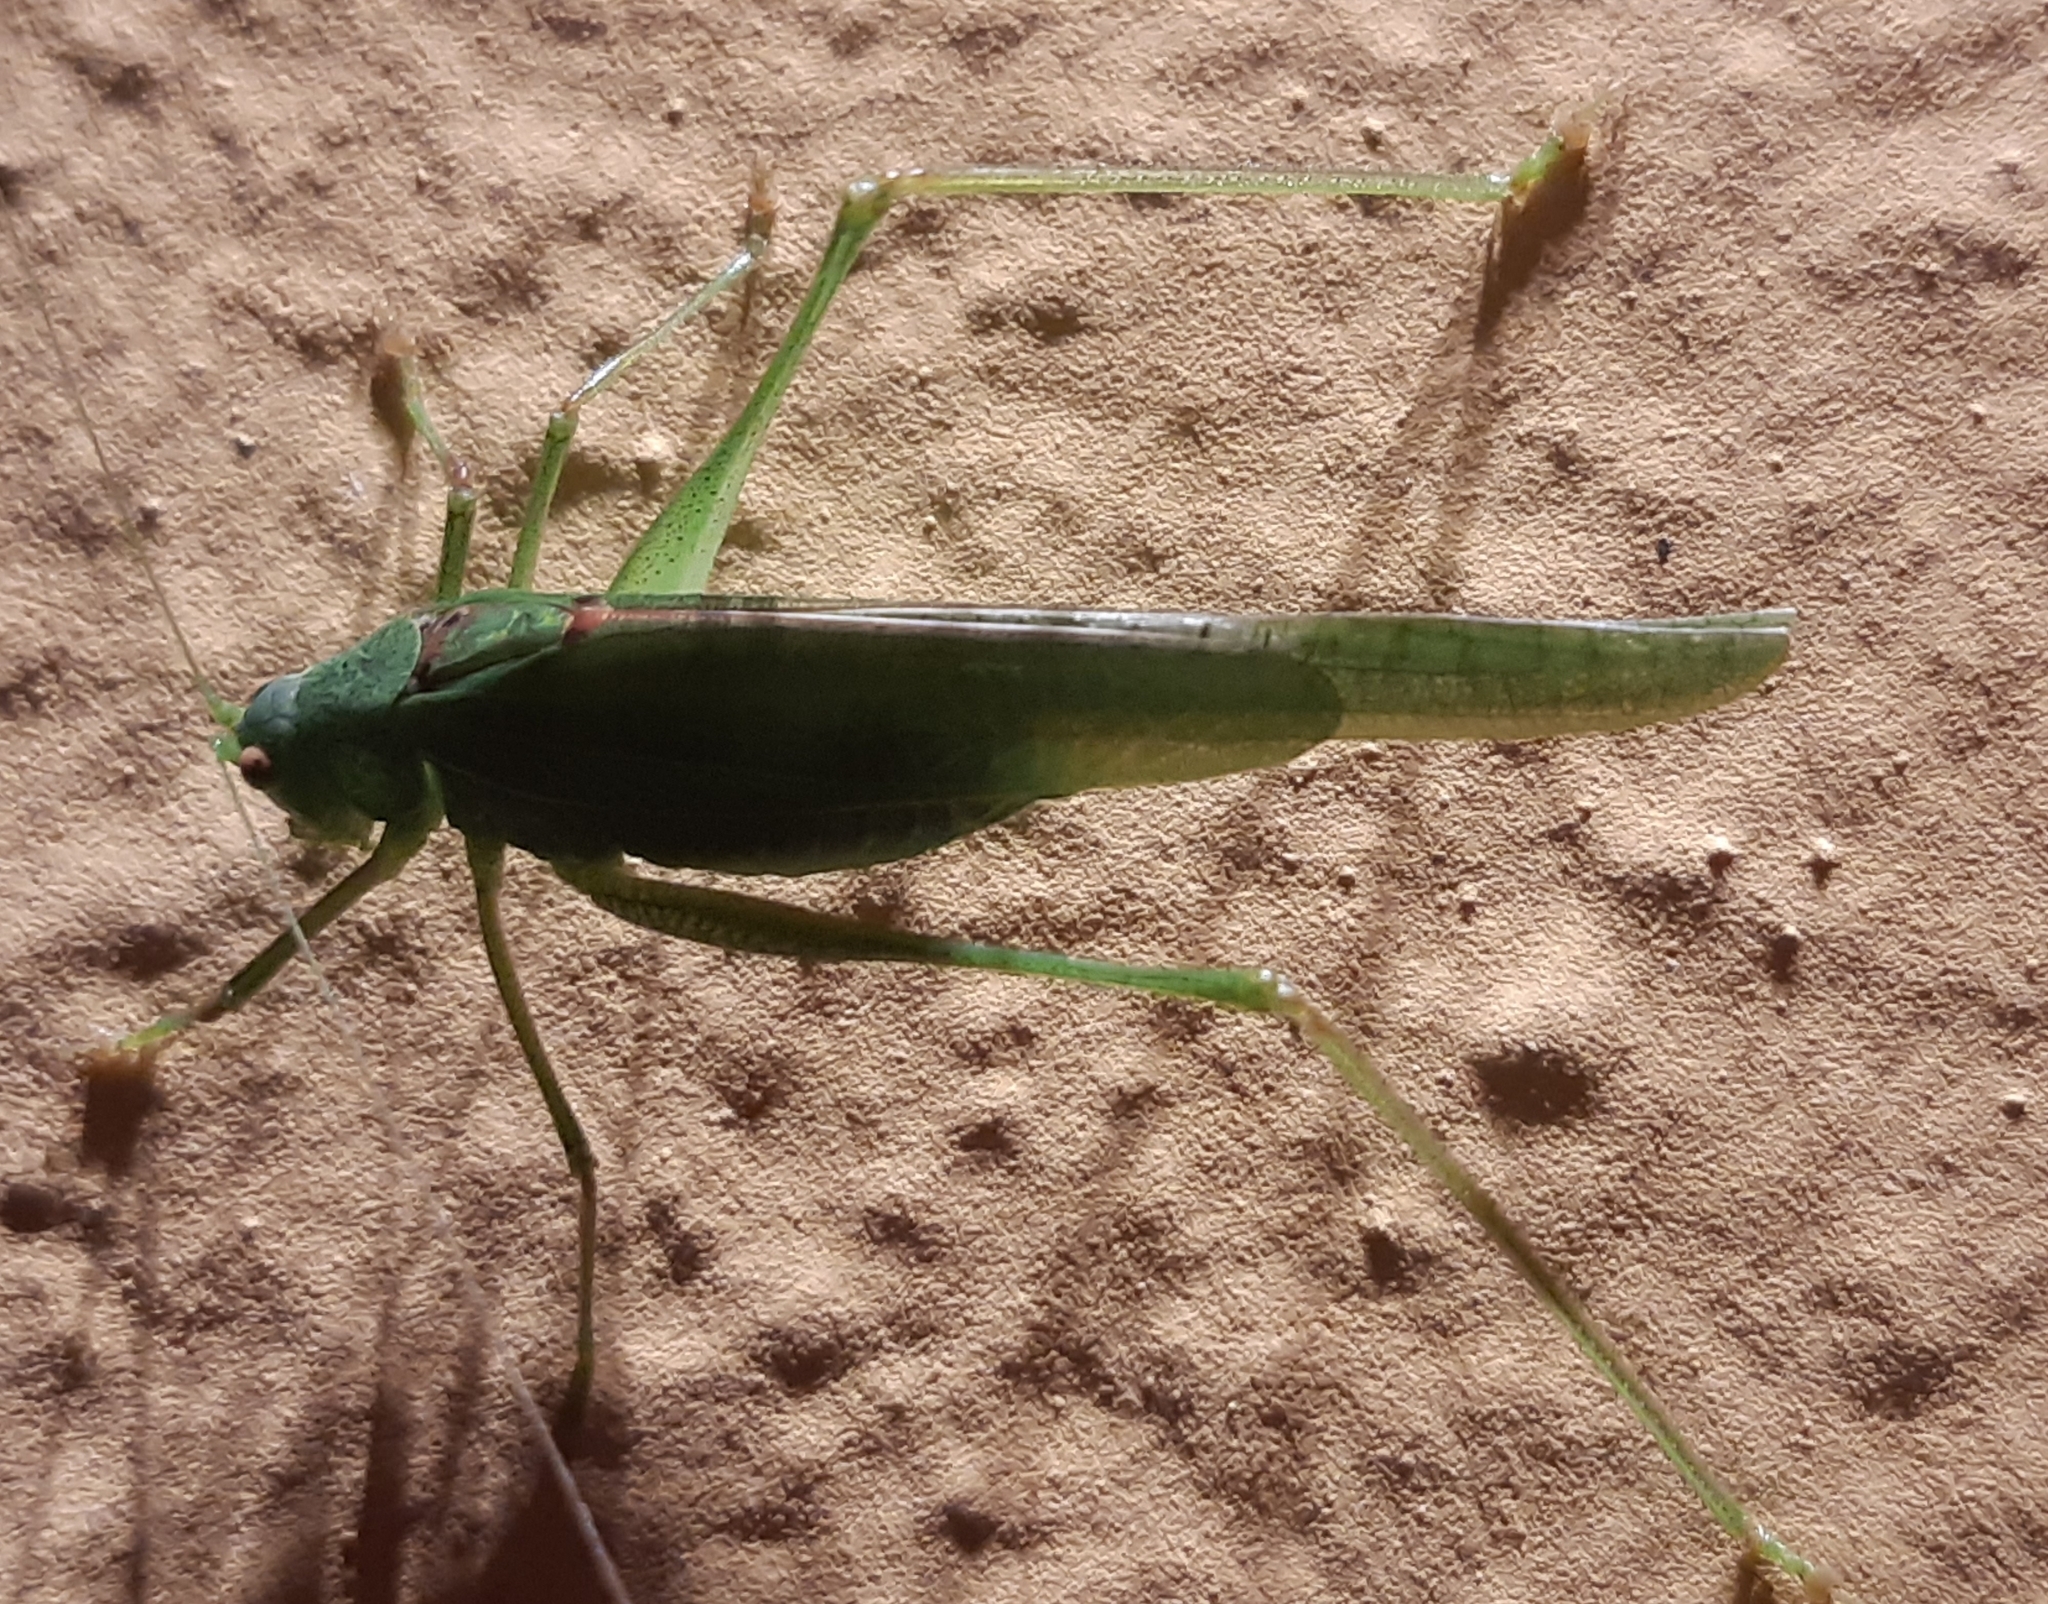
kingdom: Animalia
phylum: Arthropoda
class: Insecta
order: Orthoptera
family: Tettigoniidae
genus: Phaneroptera
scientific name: Phaneroptera nana
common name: Southern sickle bush-cricket
